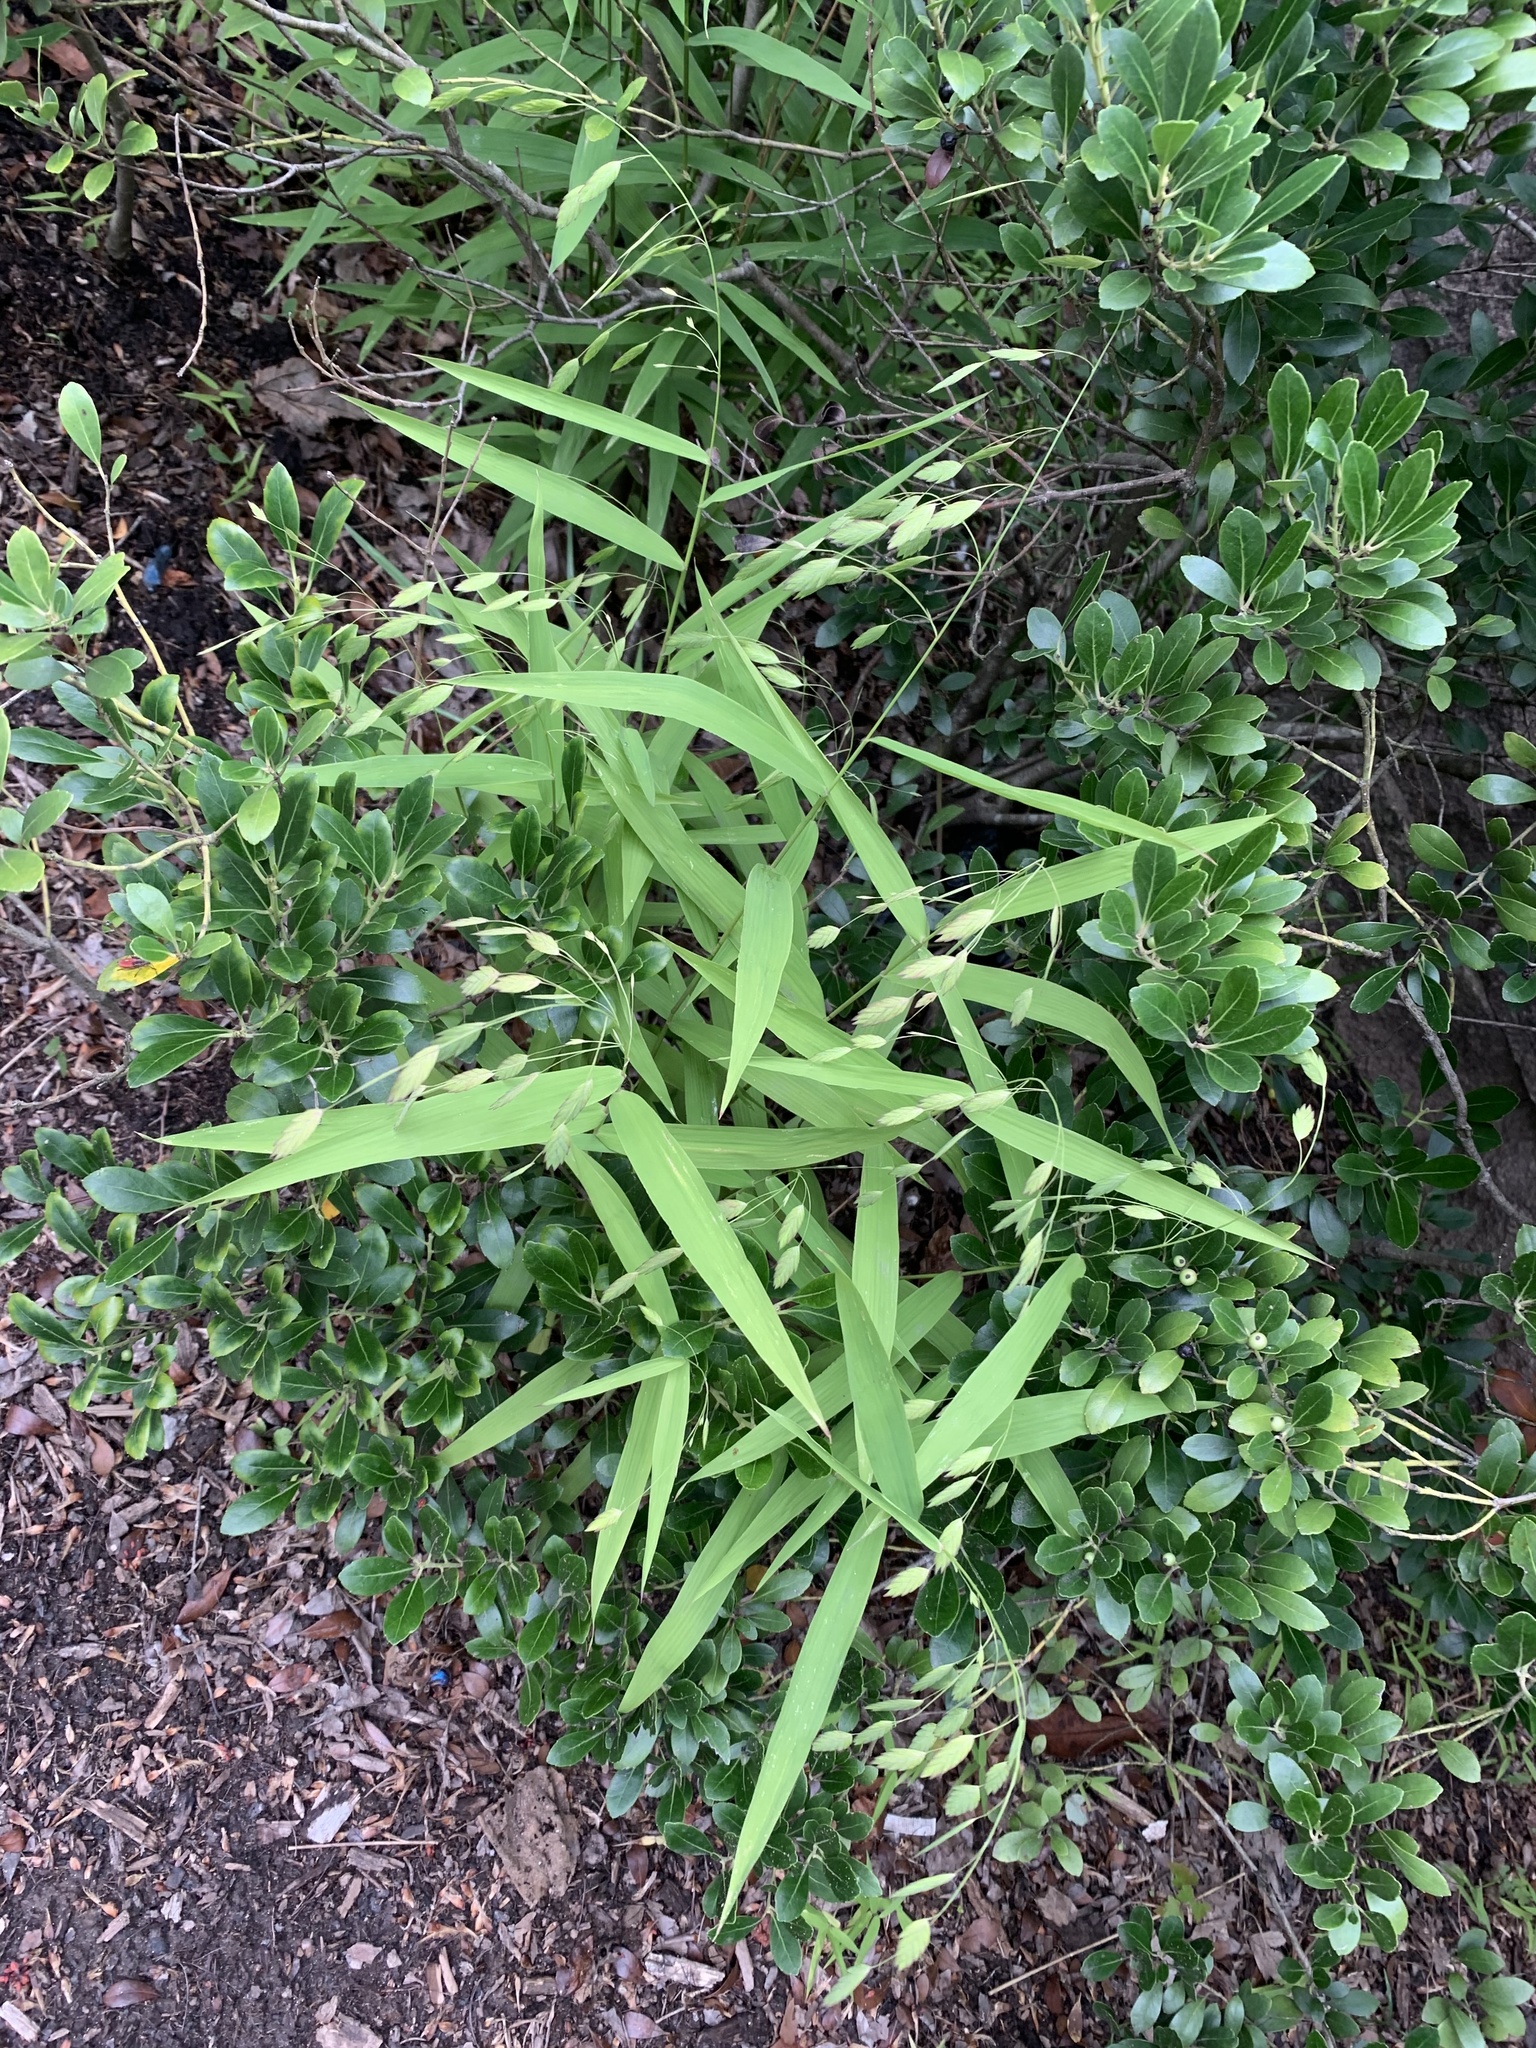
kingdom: Plantae
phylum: Tracheophyta
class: Liliopsida
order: Poales
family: Poaceae
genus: Chasmanthium
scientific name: Chasmanthium latifolium
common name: Broad-leaved chasmanthium
